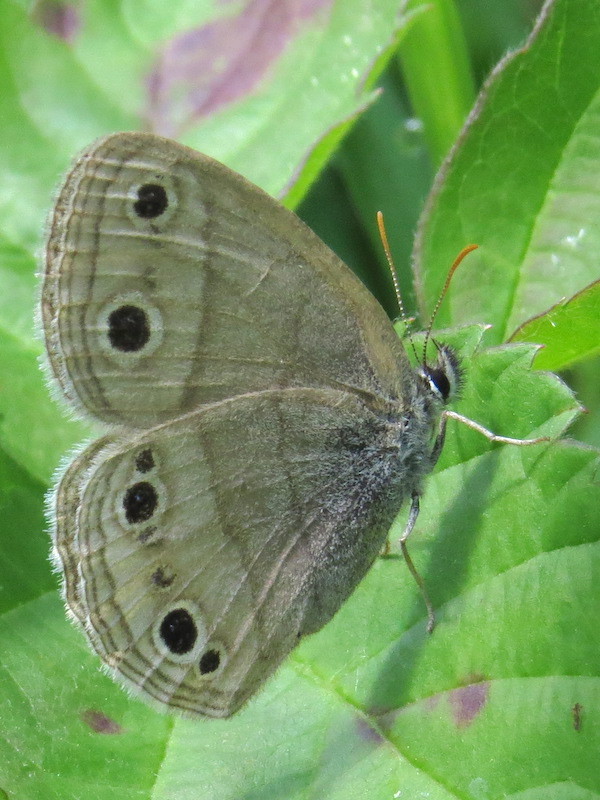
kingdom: Animalia
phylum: Arthropoda
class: Insecta
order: Lepidoptera
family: Nymphalidae
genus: Euptychia
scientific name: Euptychia cymela
